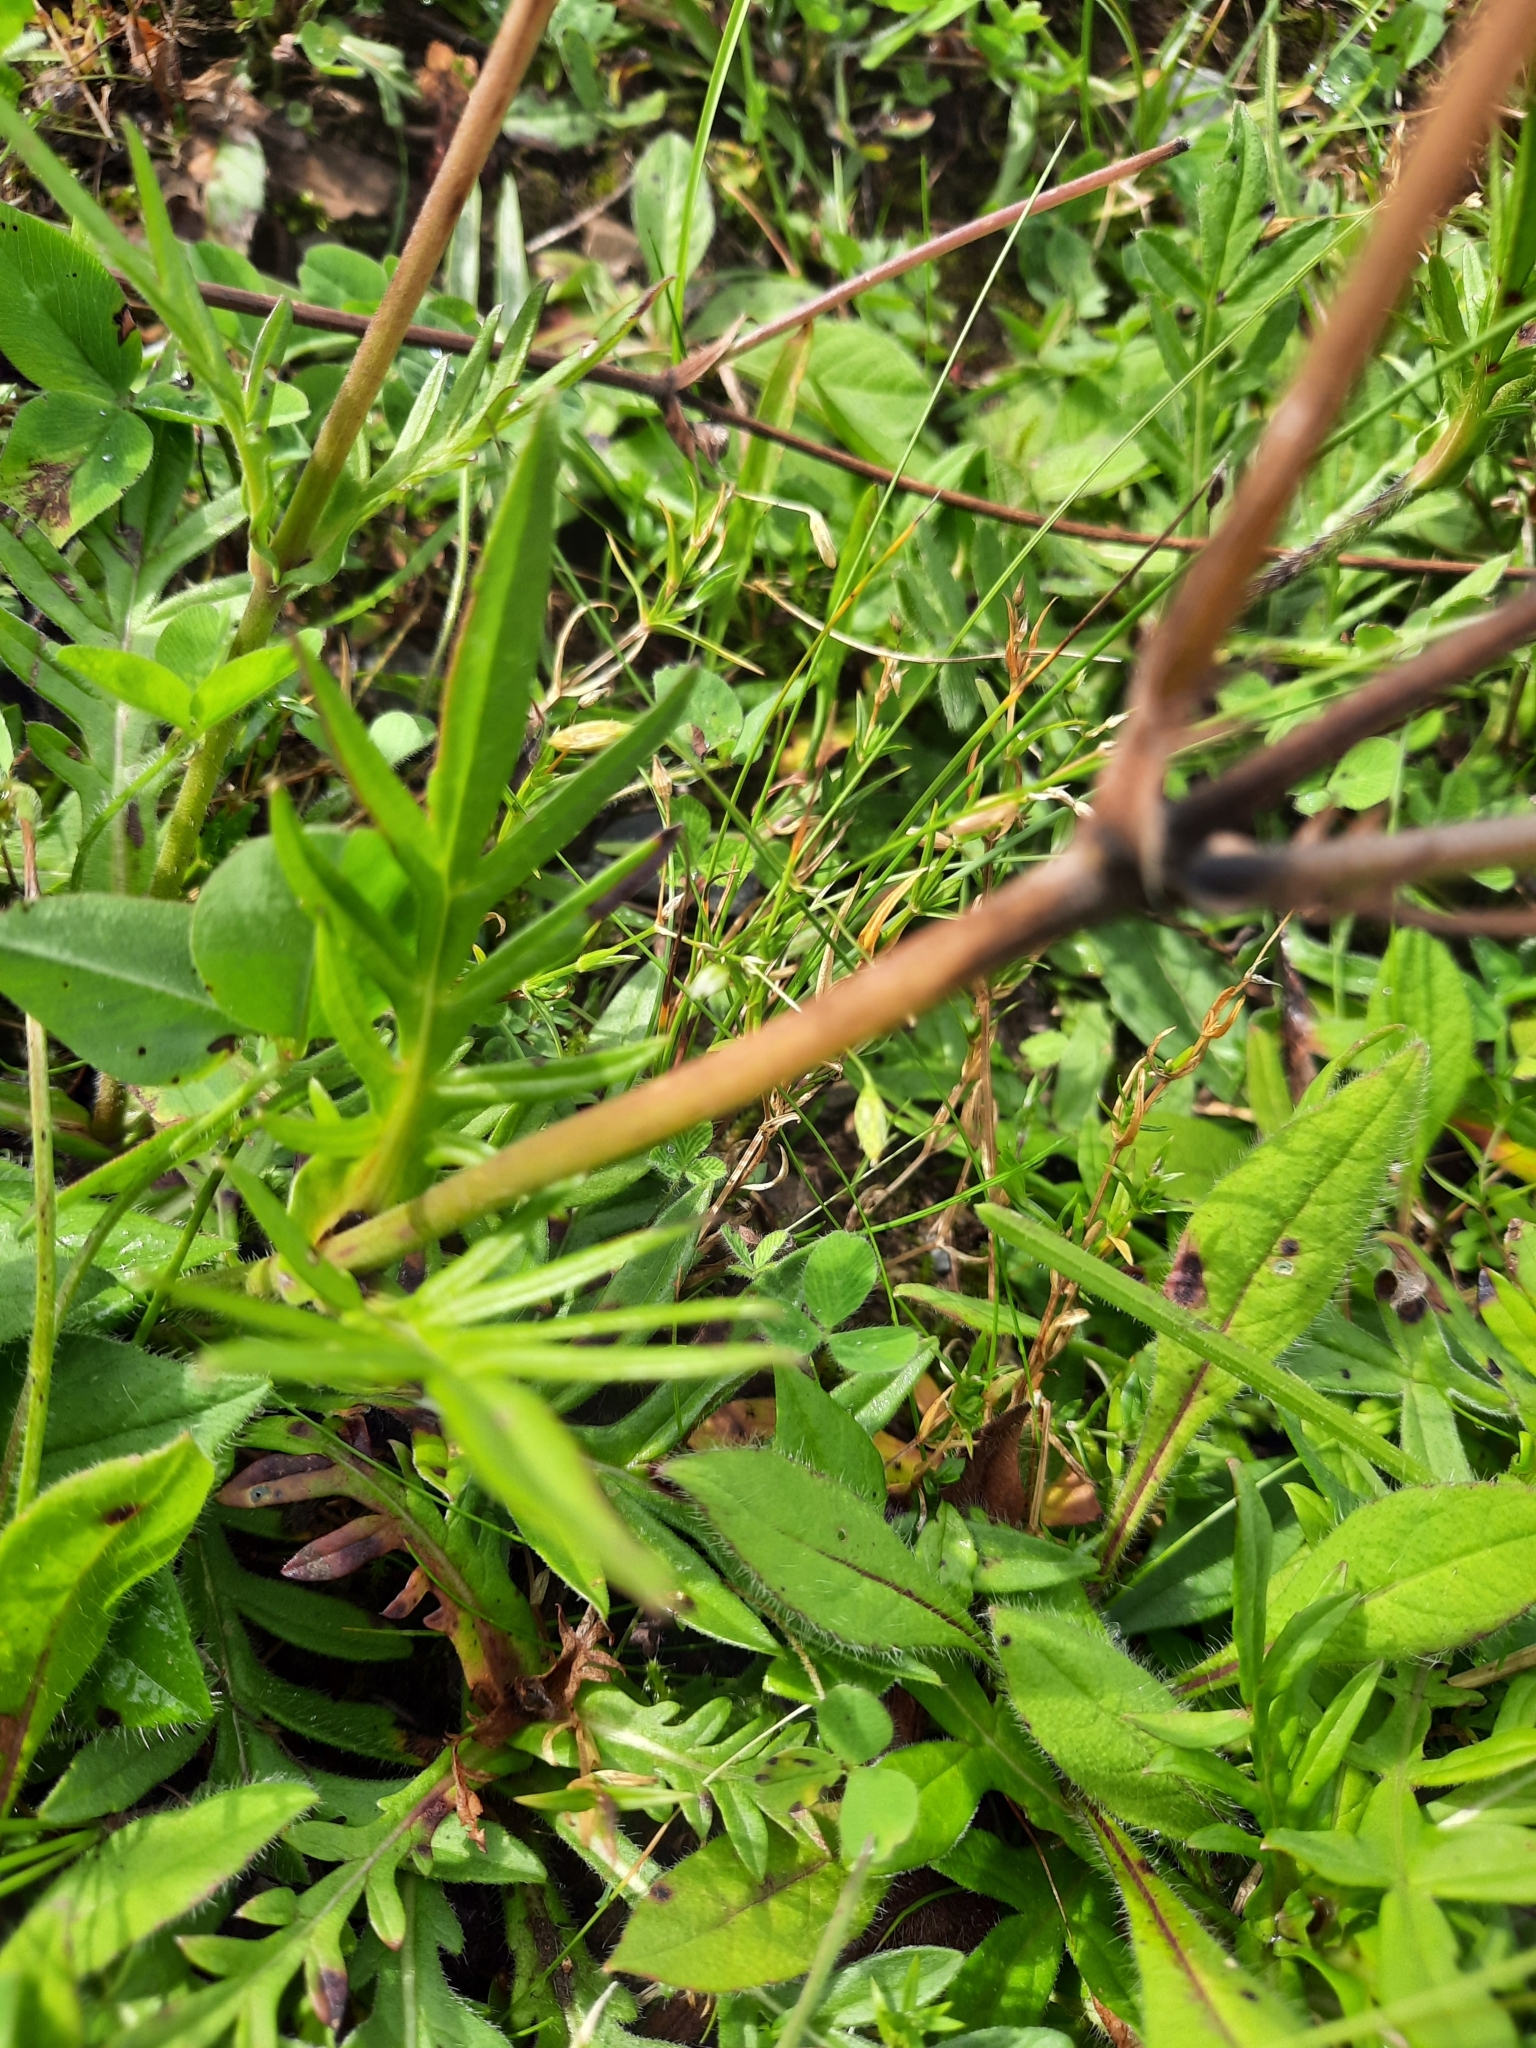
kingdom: Plantae
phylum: Tracheophyta
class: Magnoliopsida
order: Dipsacales
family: Caprifoliaceae
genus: Knautia
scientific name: Knautia arvensis
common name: Field scabiosa
